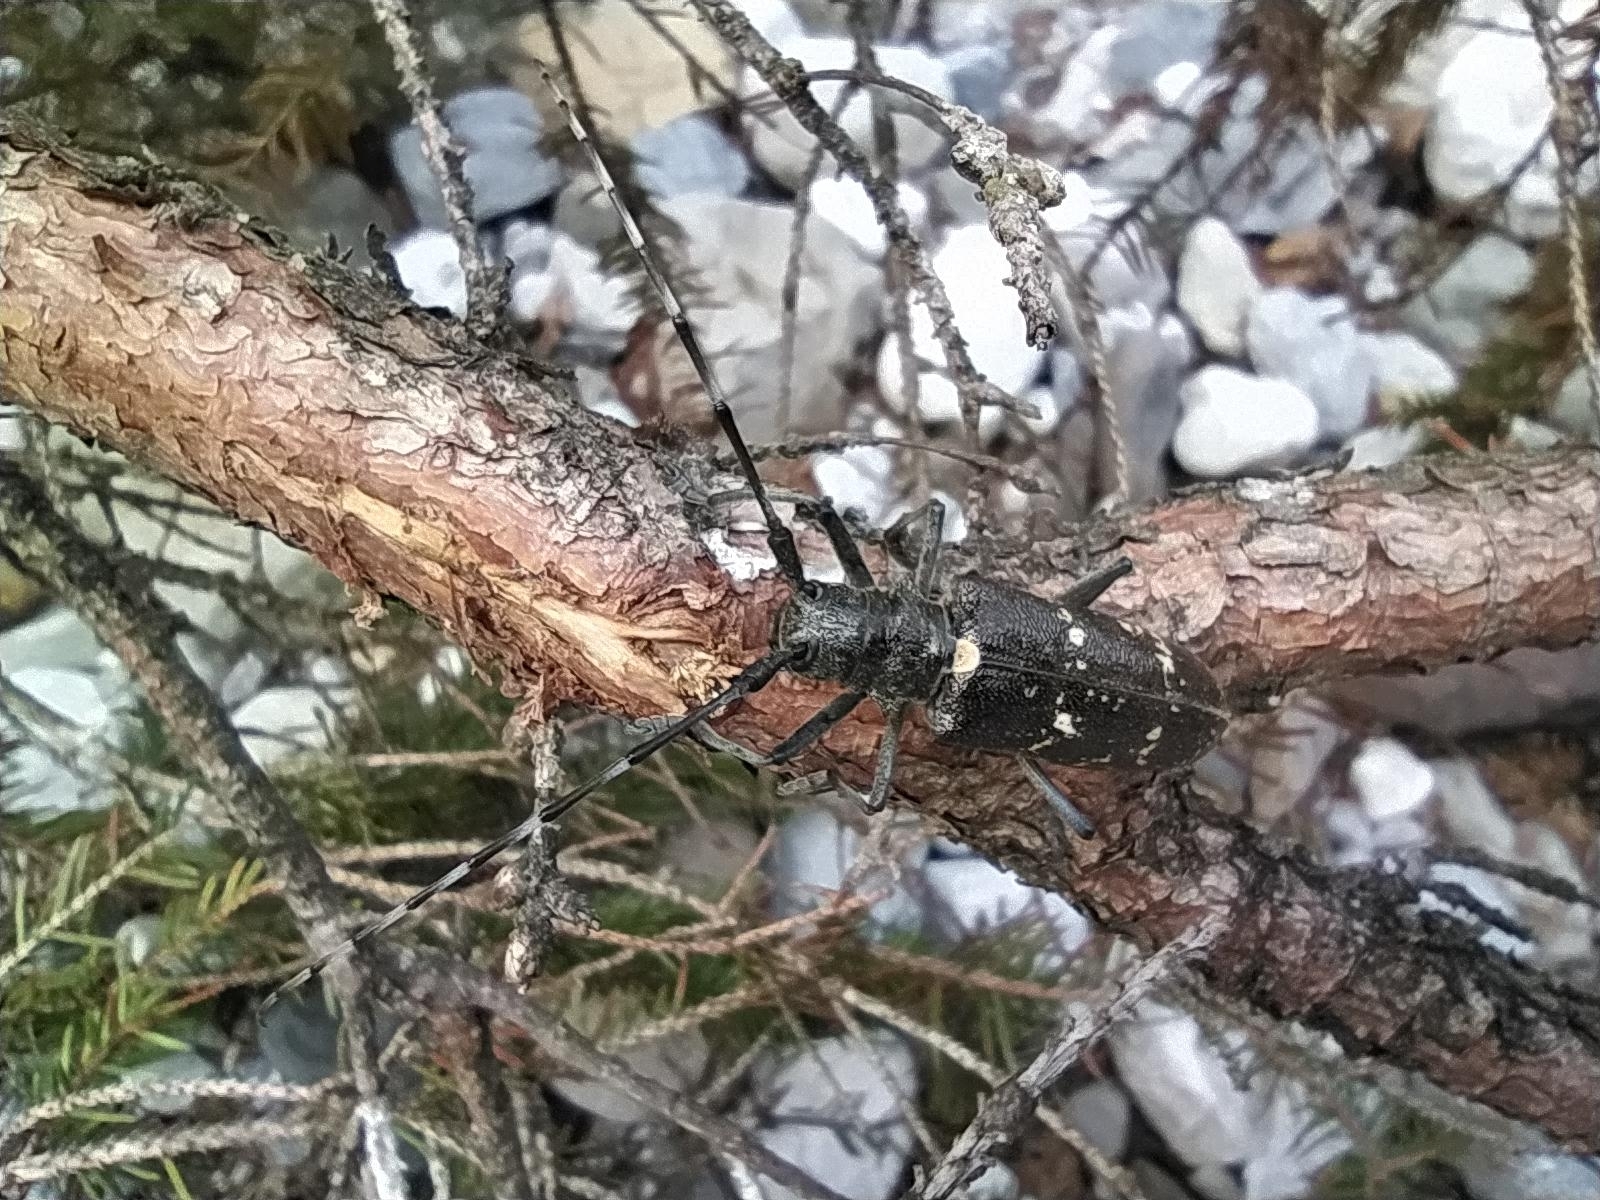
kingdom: Animalia
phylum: Arthropoda
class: Insecta
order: Coleoptera
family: Cerambycidae
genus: Monochamus
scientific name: Monochamus sartor
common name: Pine sawyer
